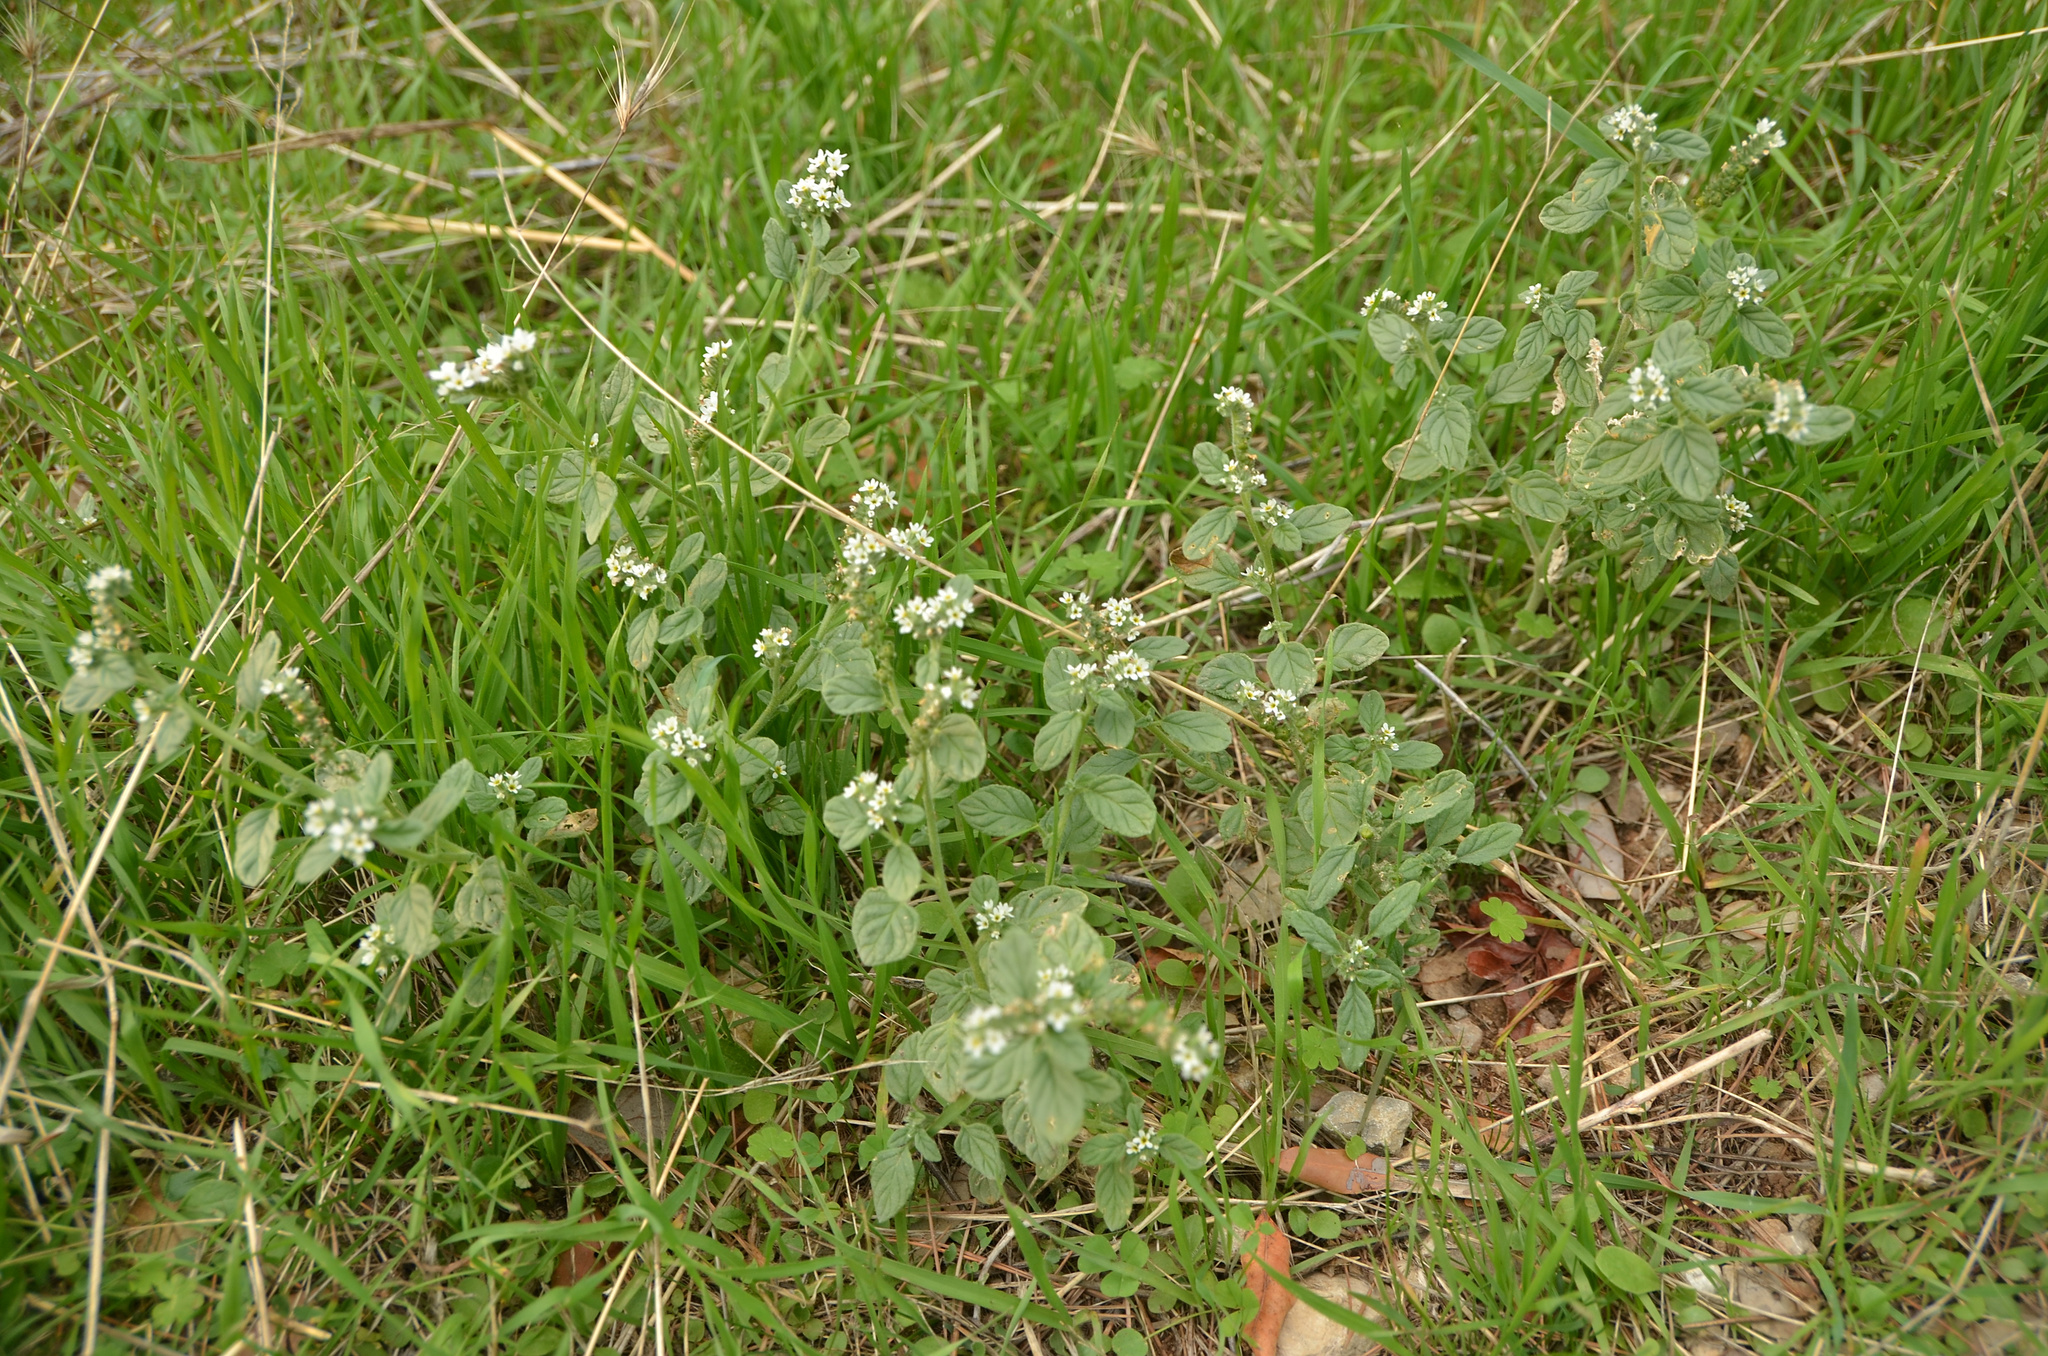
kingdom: Plantae
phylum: Tracheophyta
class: Magnoliopsida
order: Boraginales
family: Heliotropiaceae
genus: Heliotropium
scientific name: Heliotropium europaeum
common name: European heliotrope
